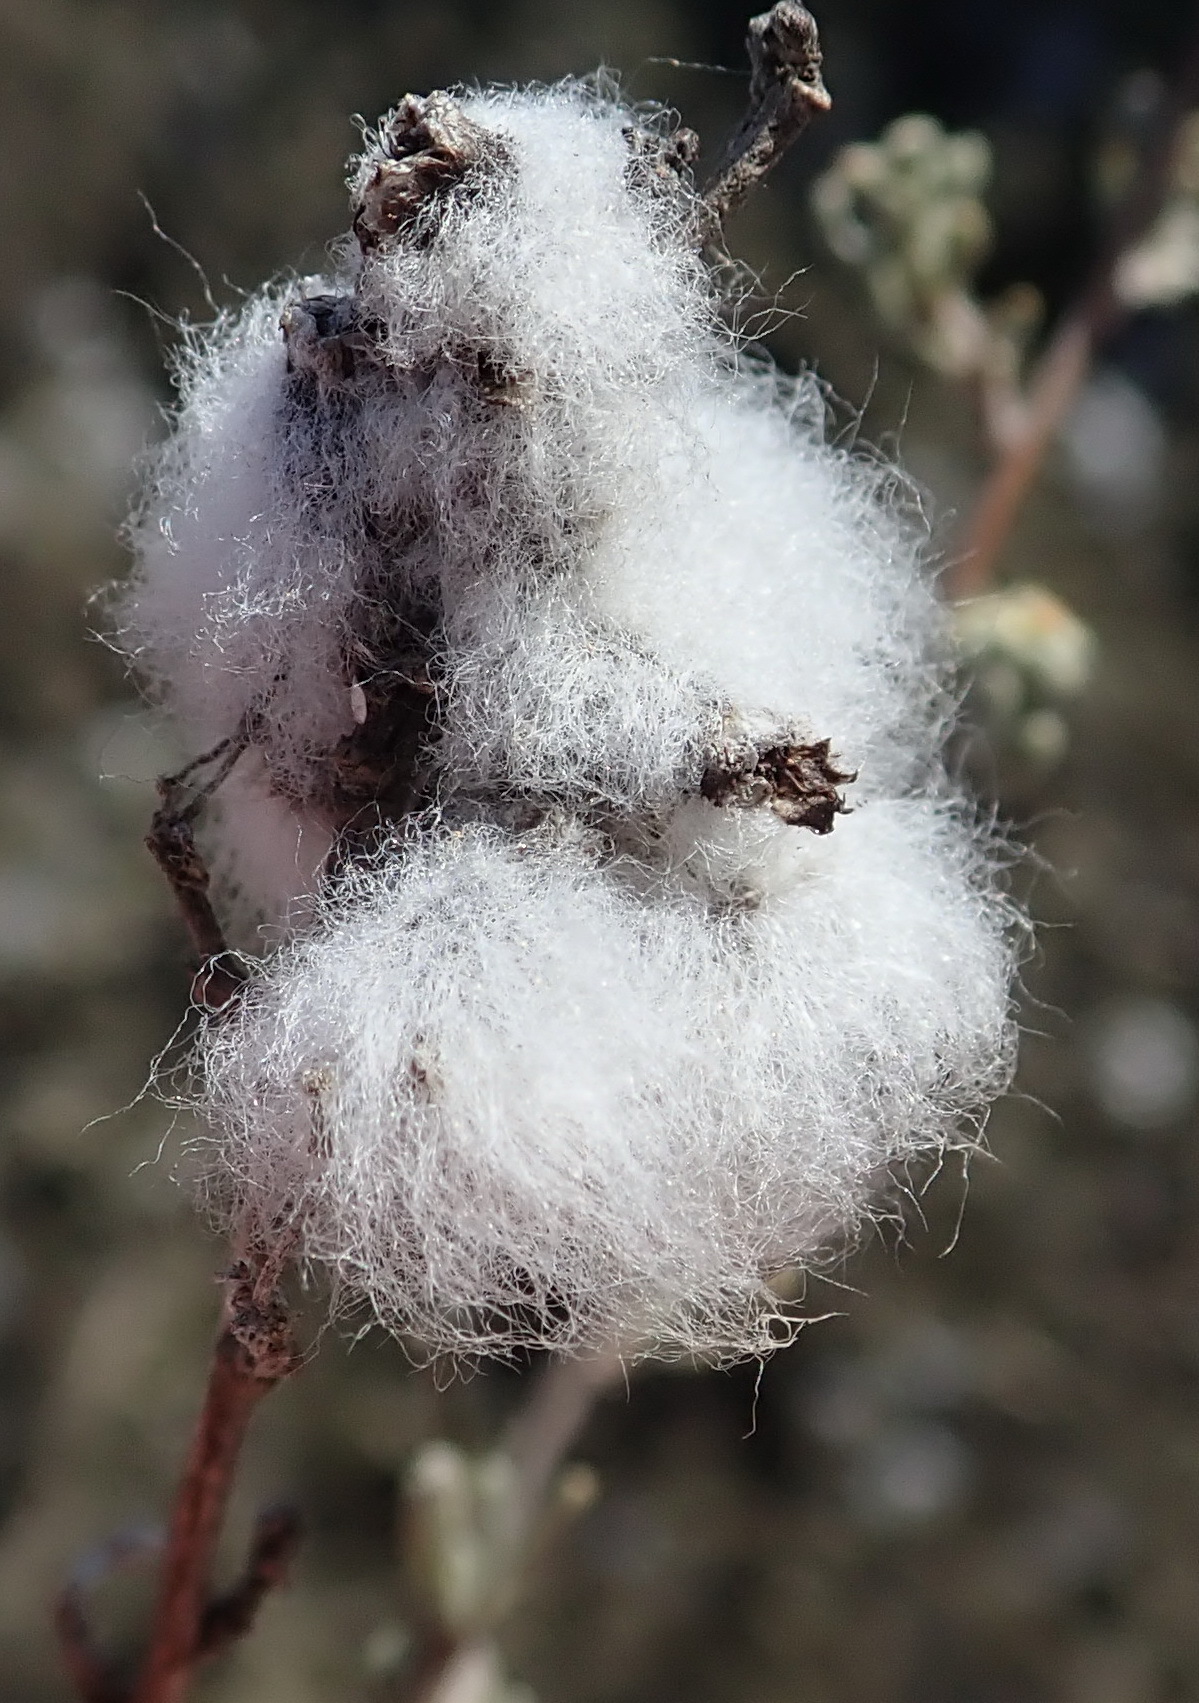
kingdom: Plantae
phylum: Tracheophyta
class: Magnoliopsida
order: Asterales
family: Asteraceae
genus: Eriocephalus
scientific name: Eriocephalus africanus
